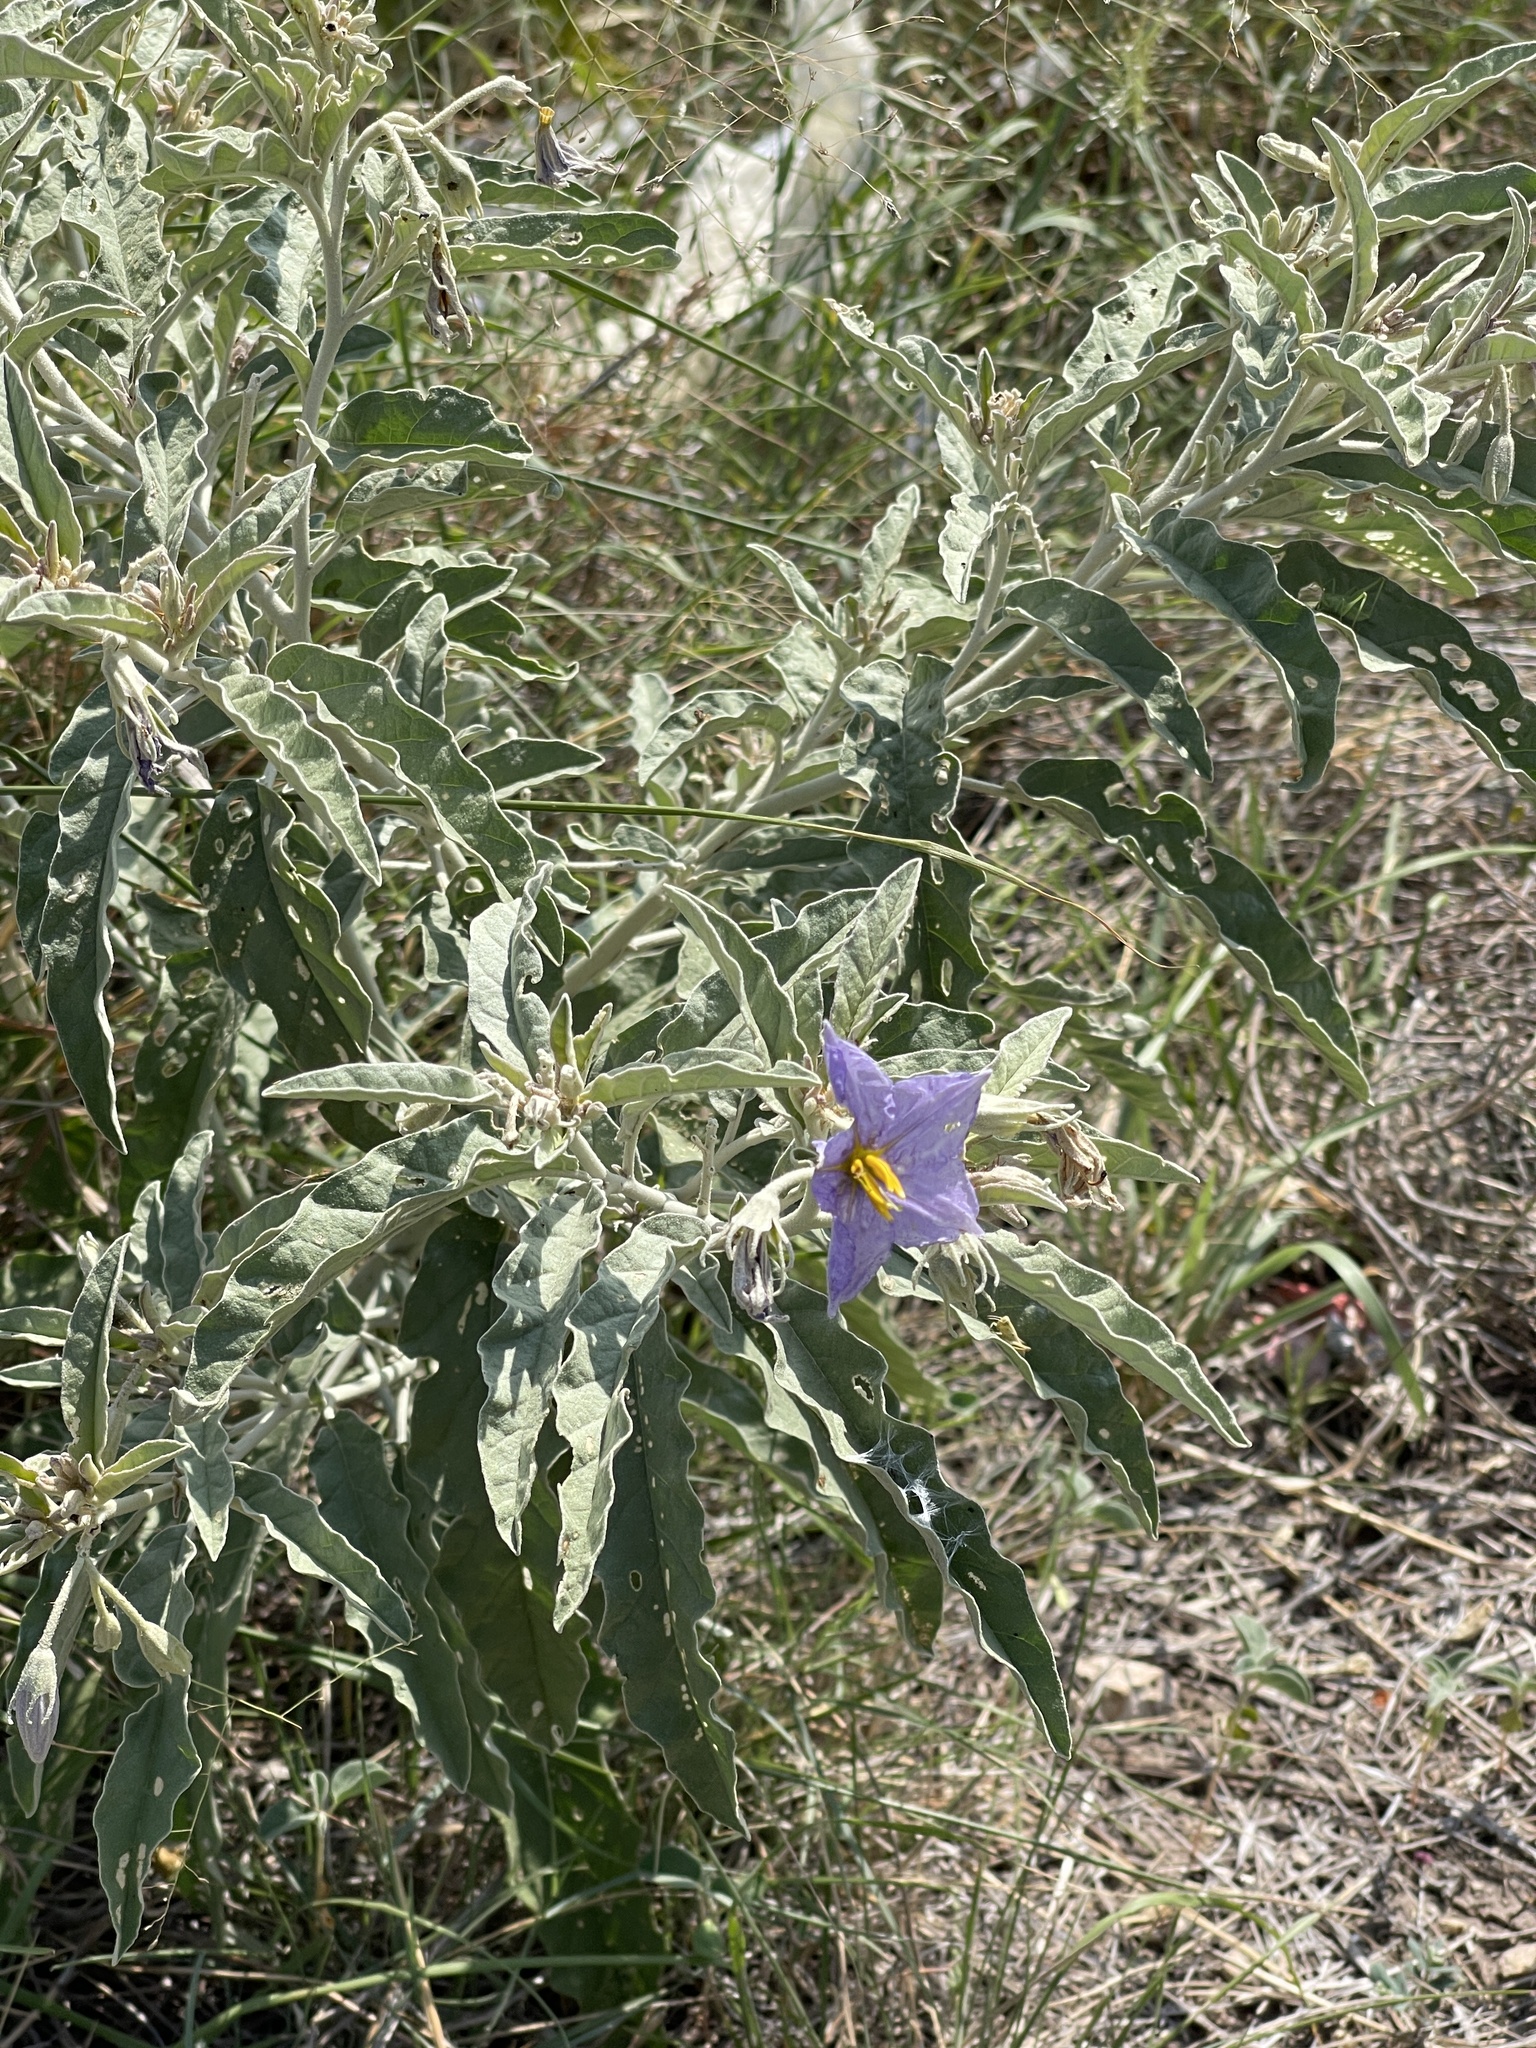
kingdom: Plantae
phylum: Tracheophyta
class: Magnoliopsida
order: Solanales
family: Solanaceae
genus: Solanum
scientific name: Solanum elaeagnifolium
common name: Silverleaf nightshade
